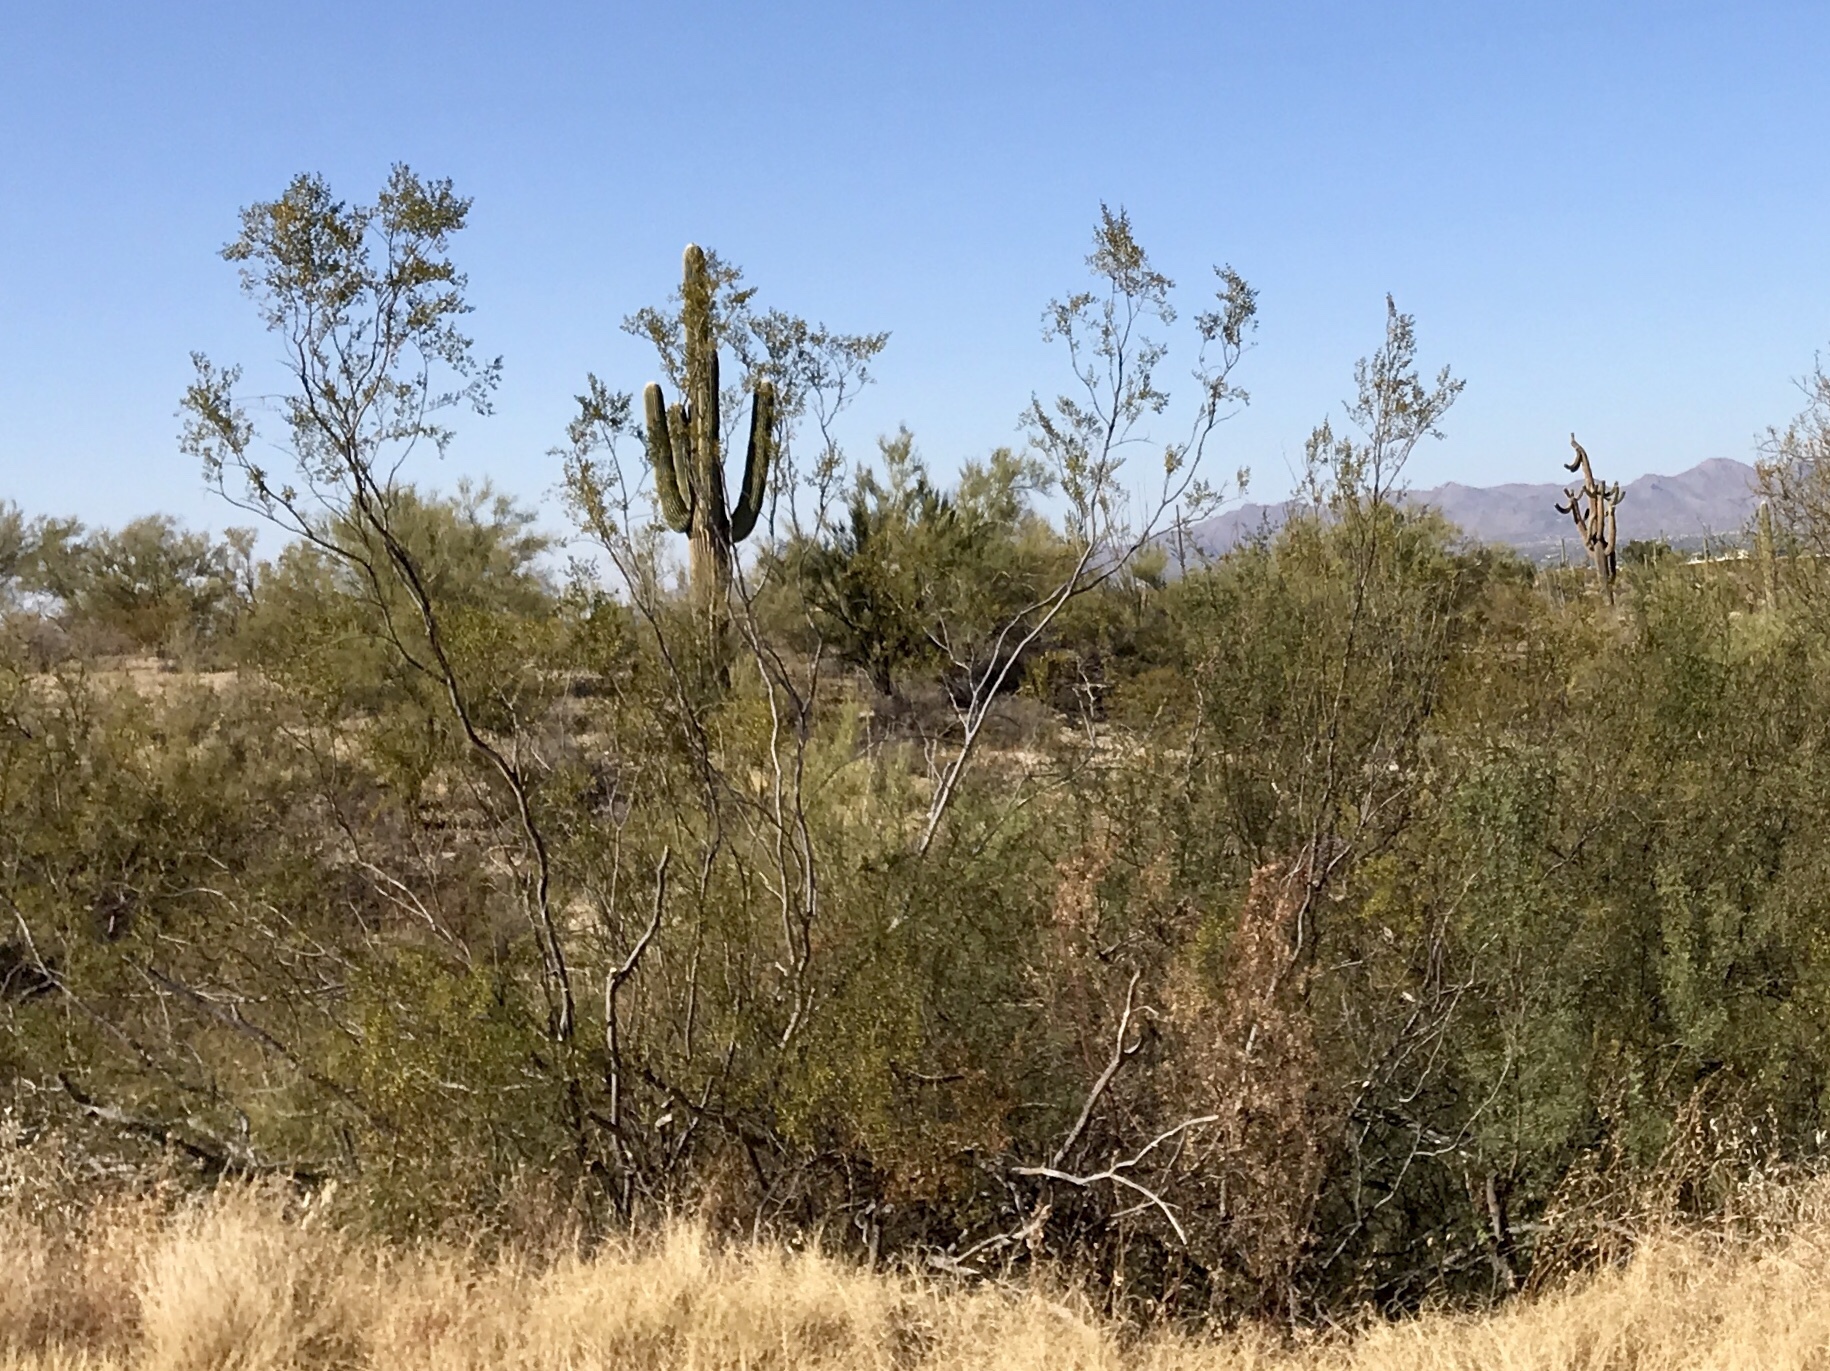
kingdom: Plantae
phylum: Tracheophyta
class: Magnoliopsida
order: Zygophyllales
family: Zygophyllaceae
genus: Larrea
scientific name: Larrea tridentata
